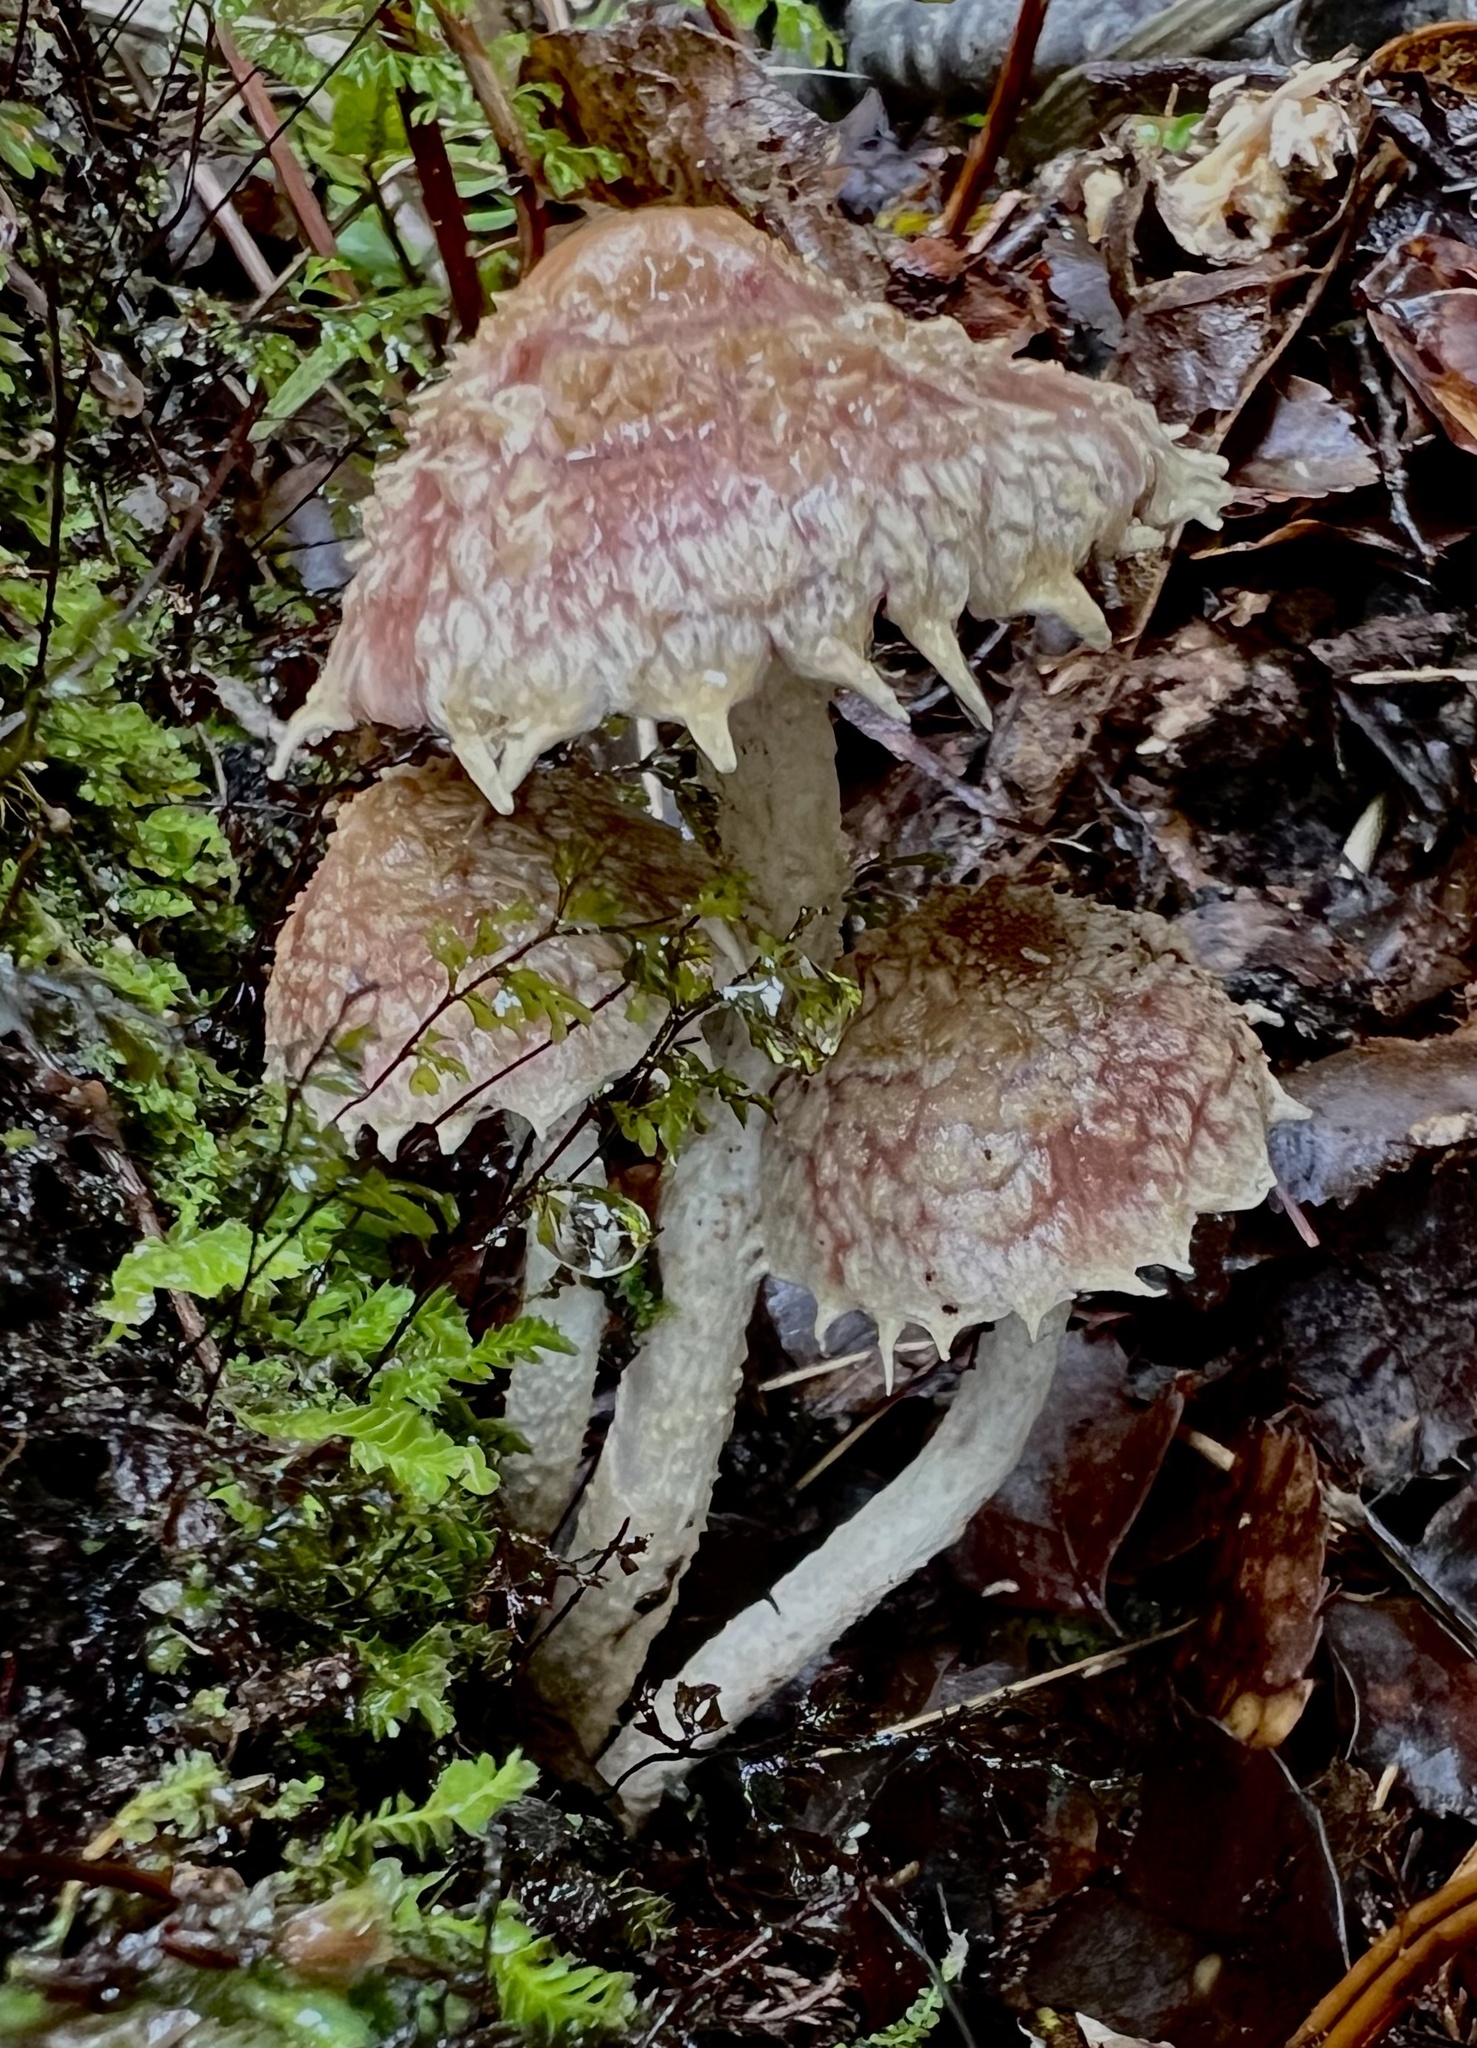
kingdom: Fungi
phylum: Basidiomycota
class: Agaricomycetes
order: Agaricales
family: Psathyrellaceae
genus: Psathyrella
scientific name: Psathyrella asperospora
